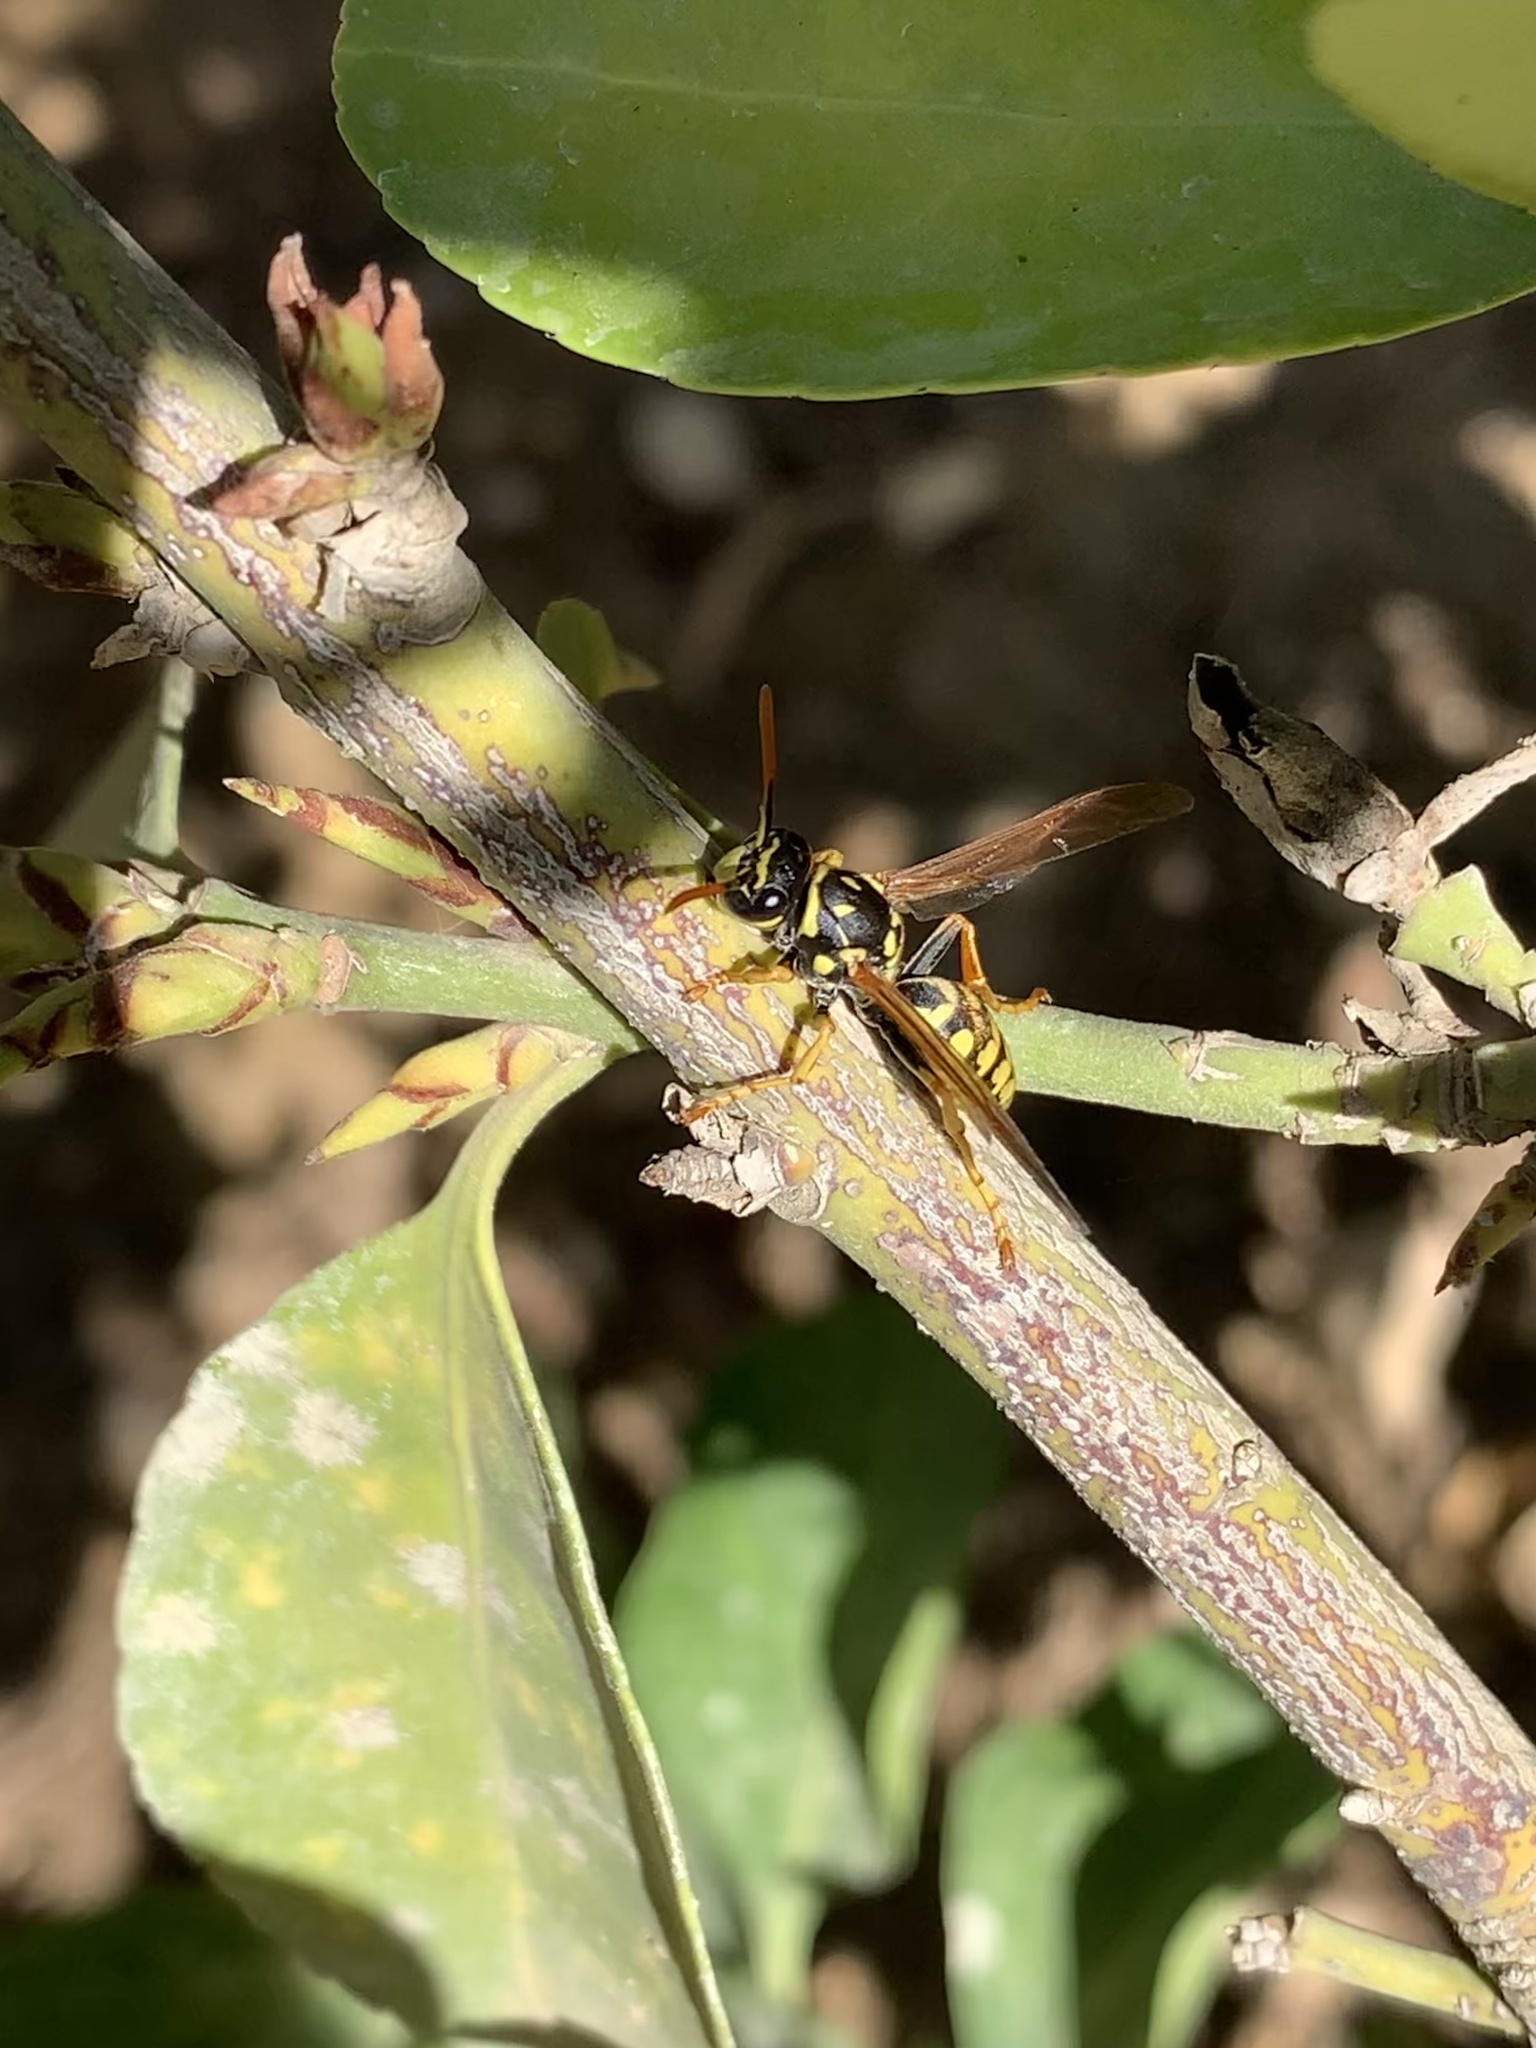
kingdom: Animalia
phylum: Arthropoda
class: Insecta
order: Hymenoptera
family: Eumenidae
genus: Polistes
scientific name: Polistes dominula
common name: Paper wasp
